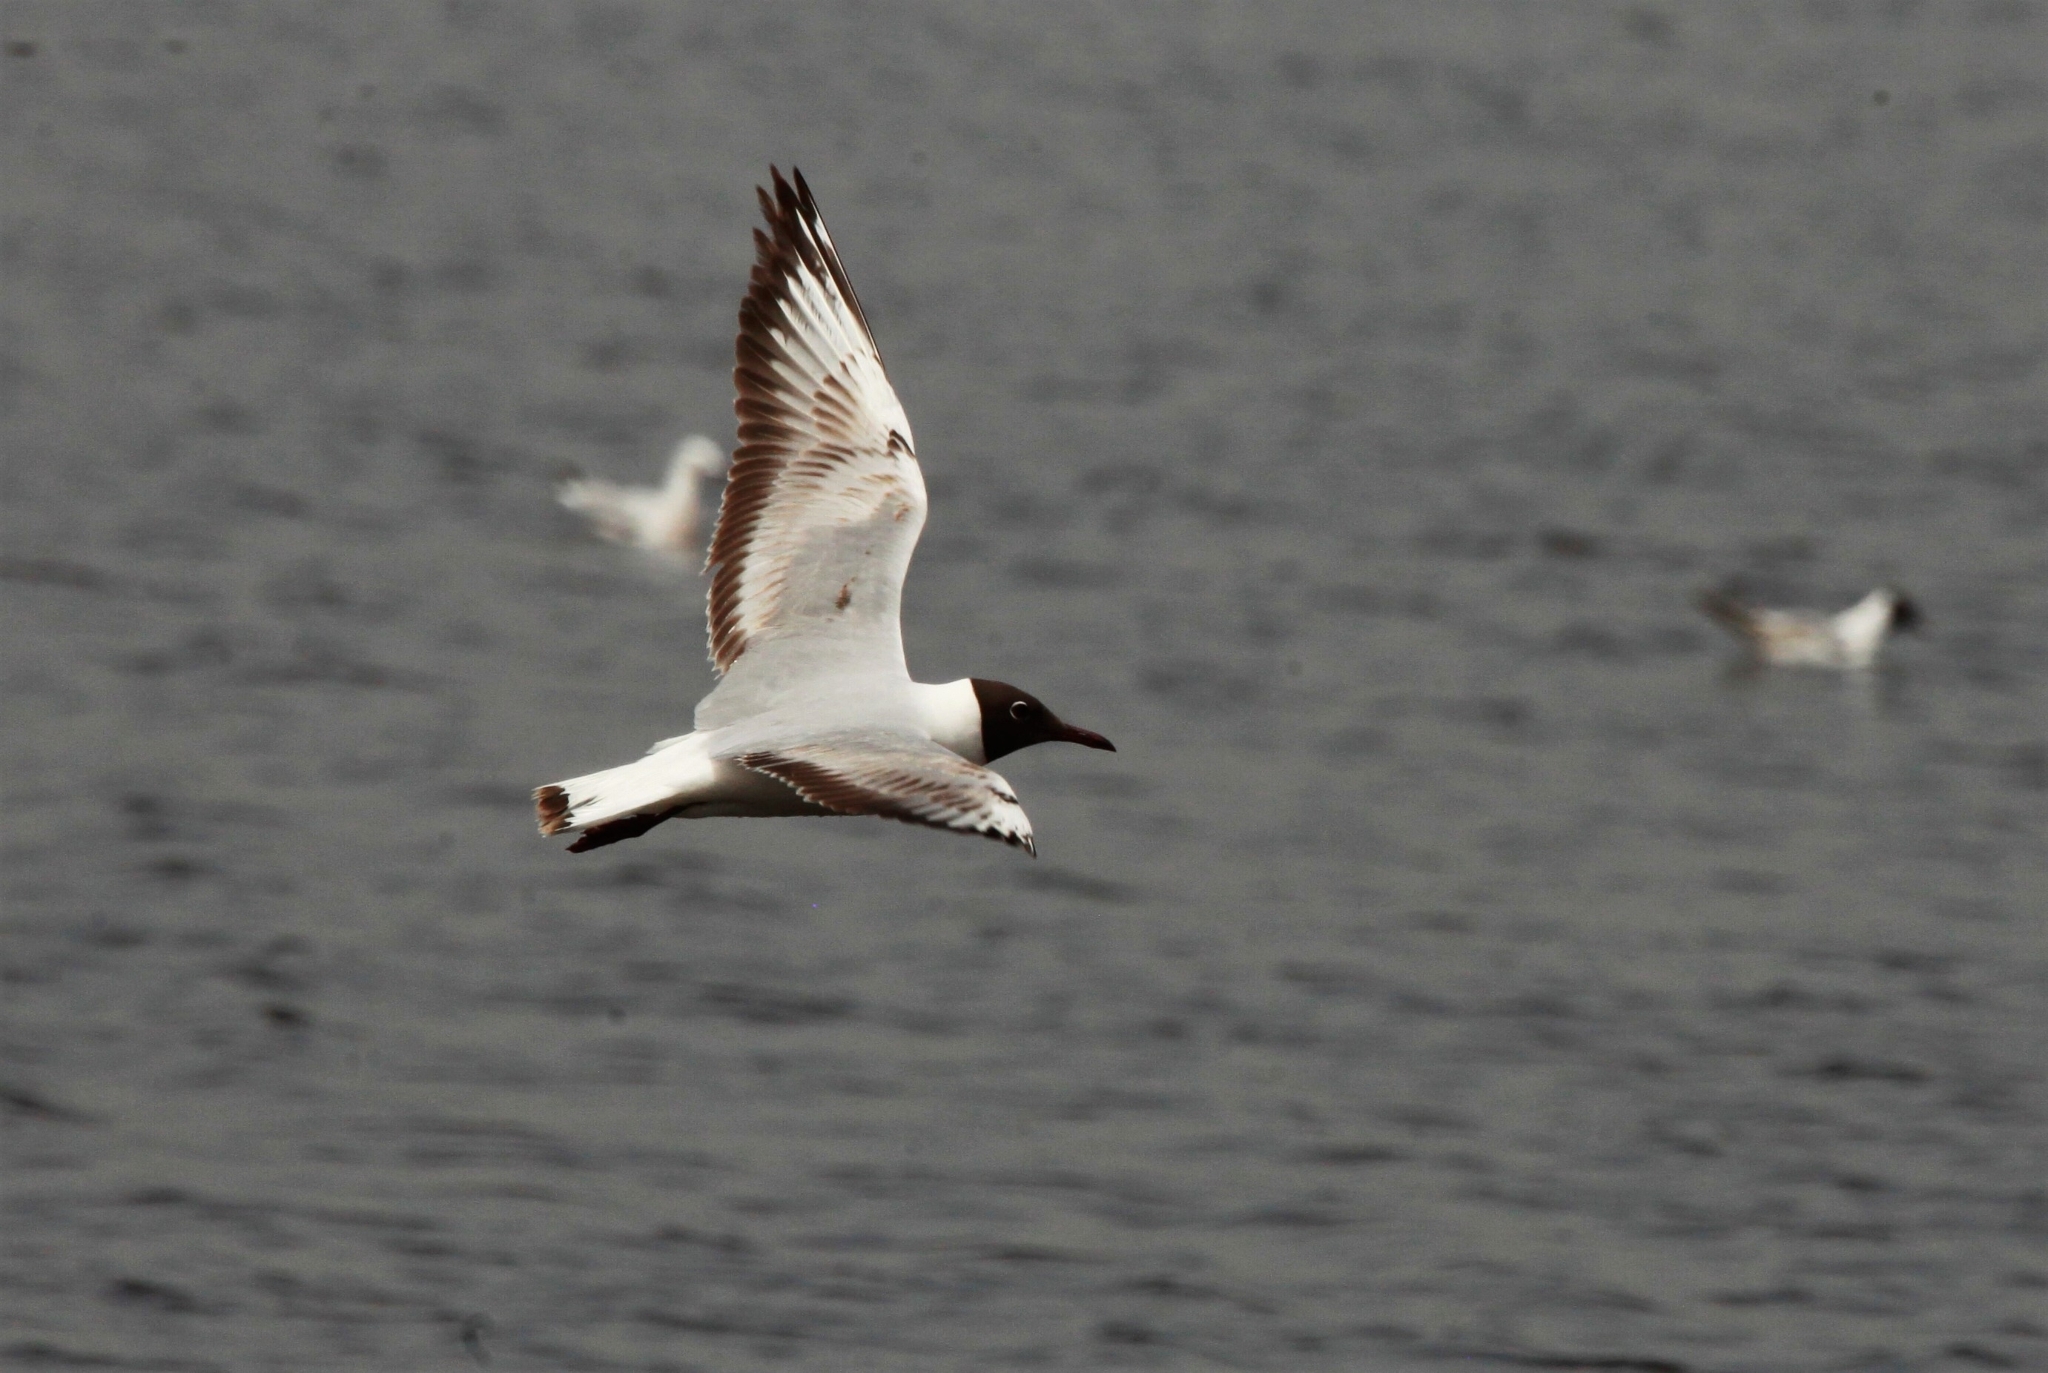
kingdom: Animalia
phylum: Chordata
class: Aves
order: Charadriiformes
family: Laridae
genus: Chroicocephalus
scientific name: Chroicocephalus ridibundus
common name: Black-headed gull
